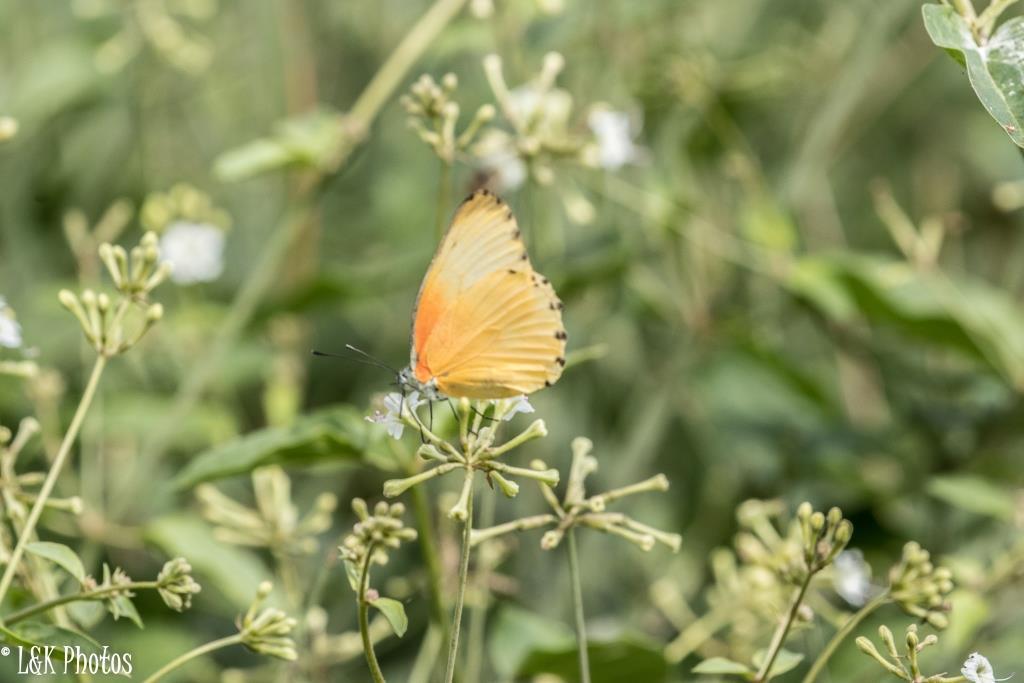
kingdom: Animalia
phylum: Arthropoda
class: Insecta
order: Lepidoptera
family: Pieridae
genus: Mylothris
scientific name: Mylothris agathina
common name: Eastern dotted border
